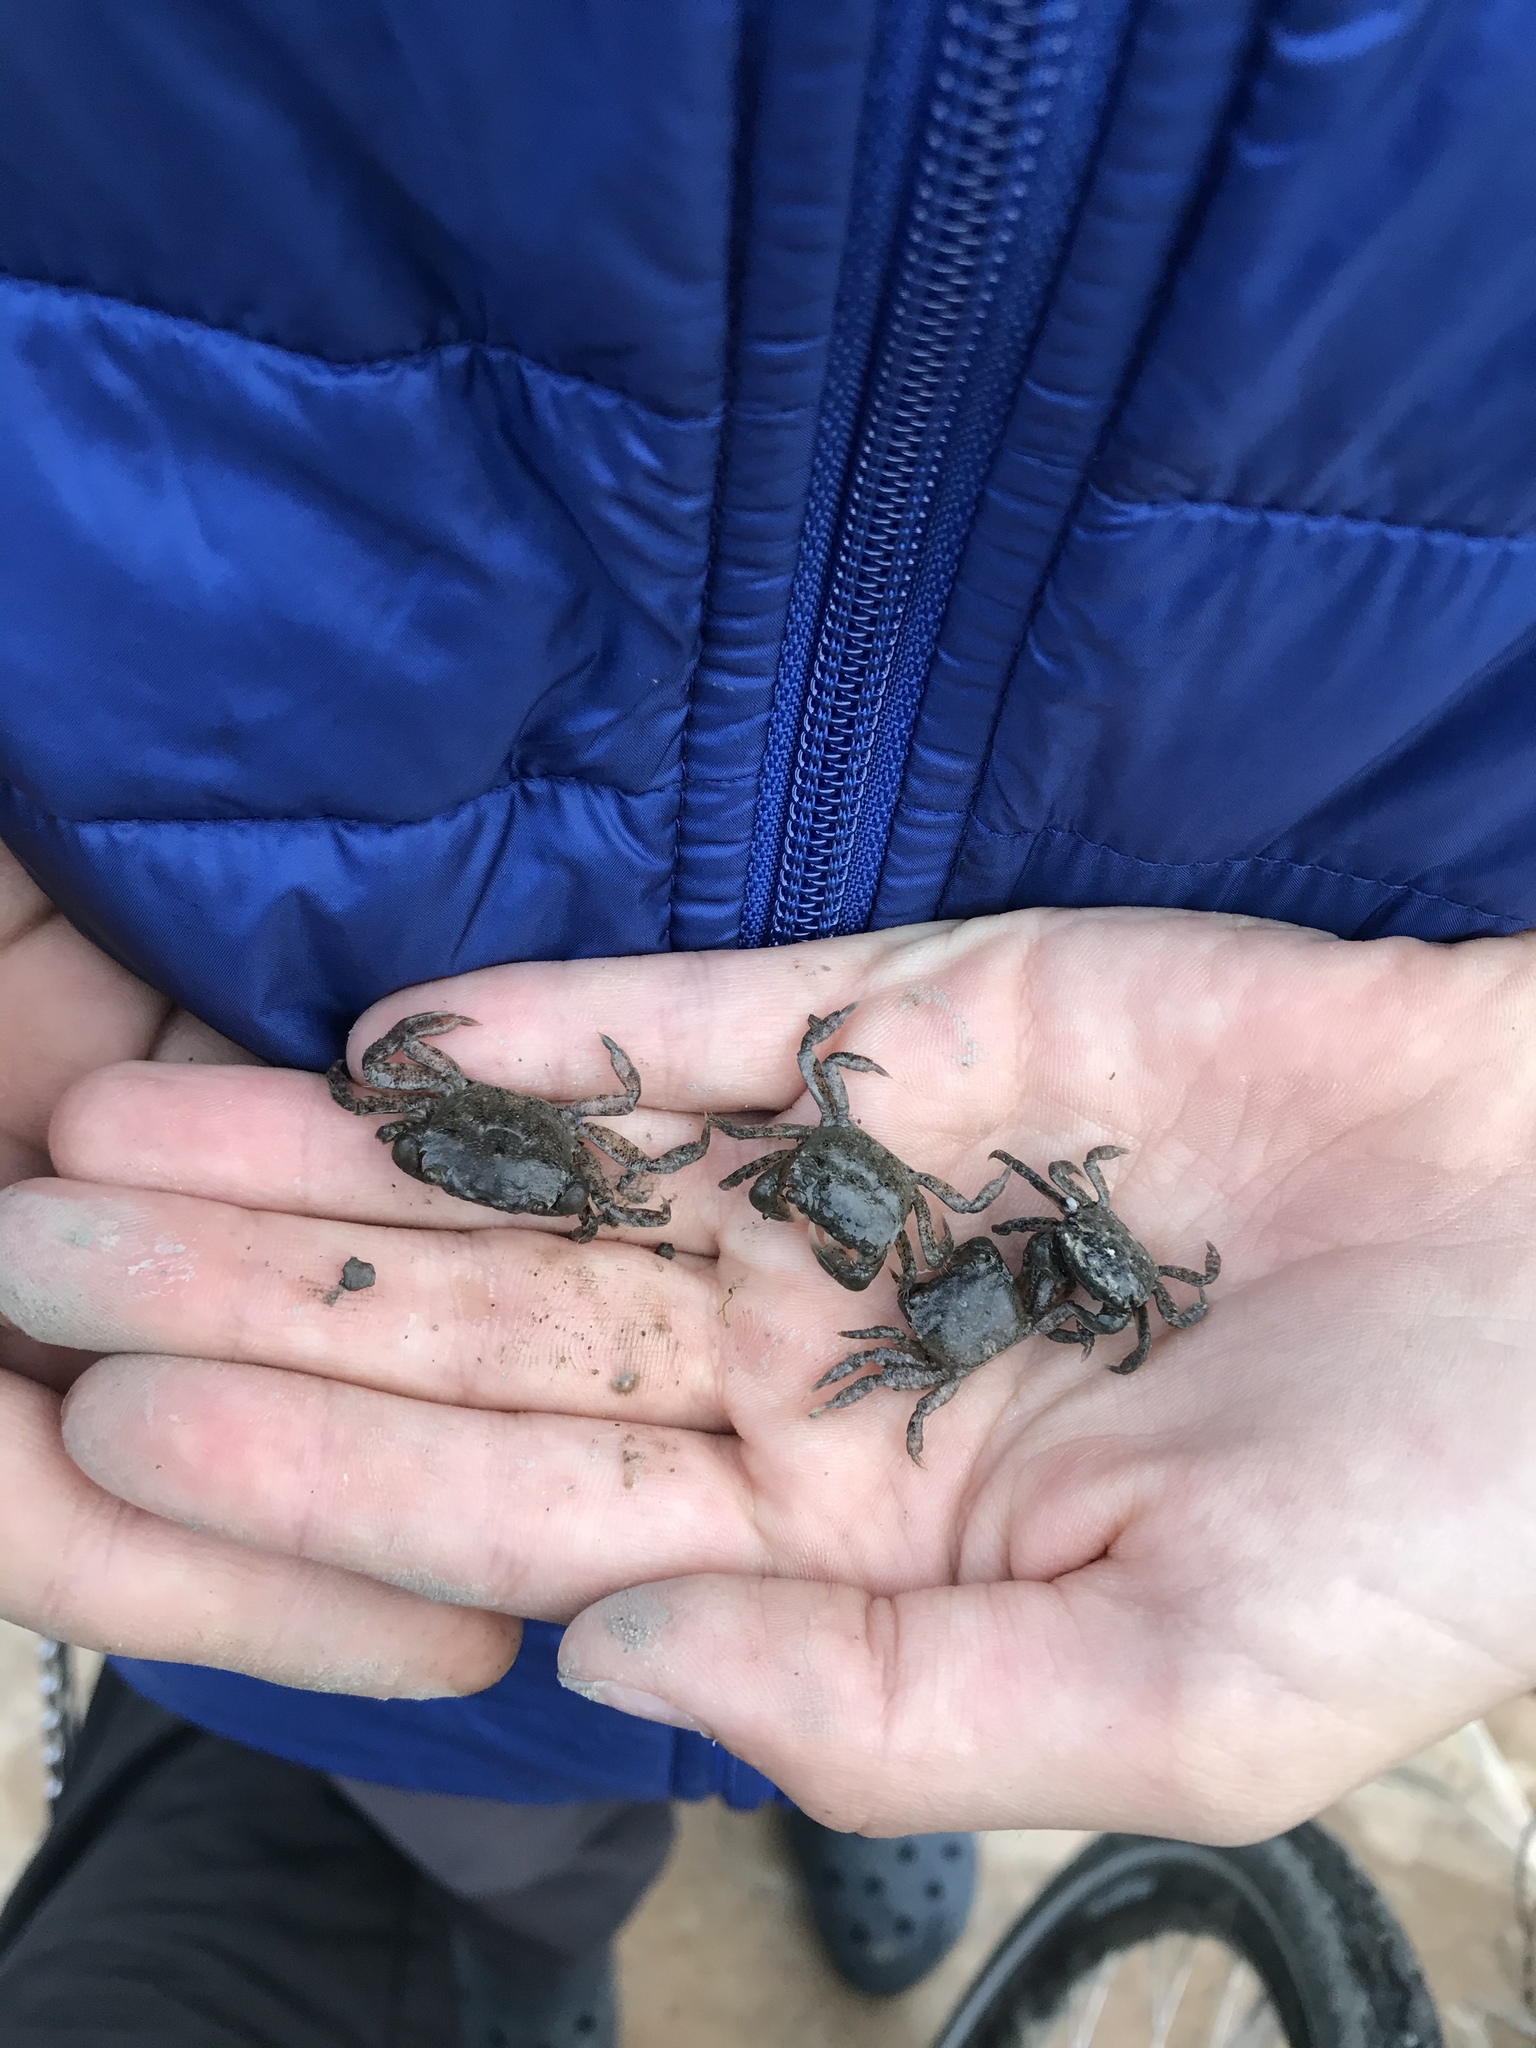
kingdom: Animalia
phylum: Arthropoda
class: Malacostraca
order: Decapoda
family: Varunidae
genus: Hemigrapsus
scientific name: Hemigrapsus oregonensis
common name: Yellow shore crab
